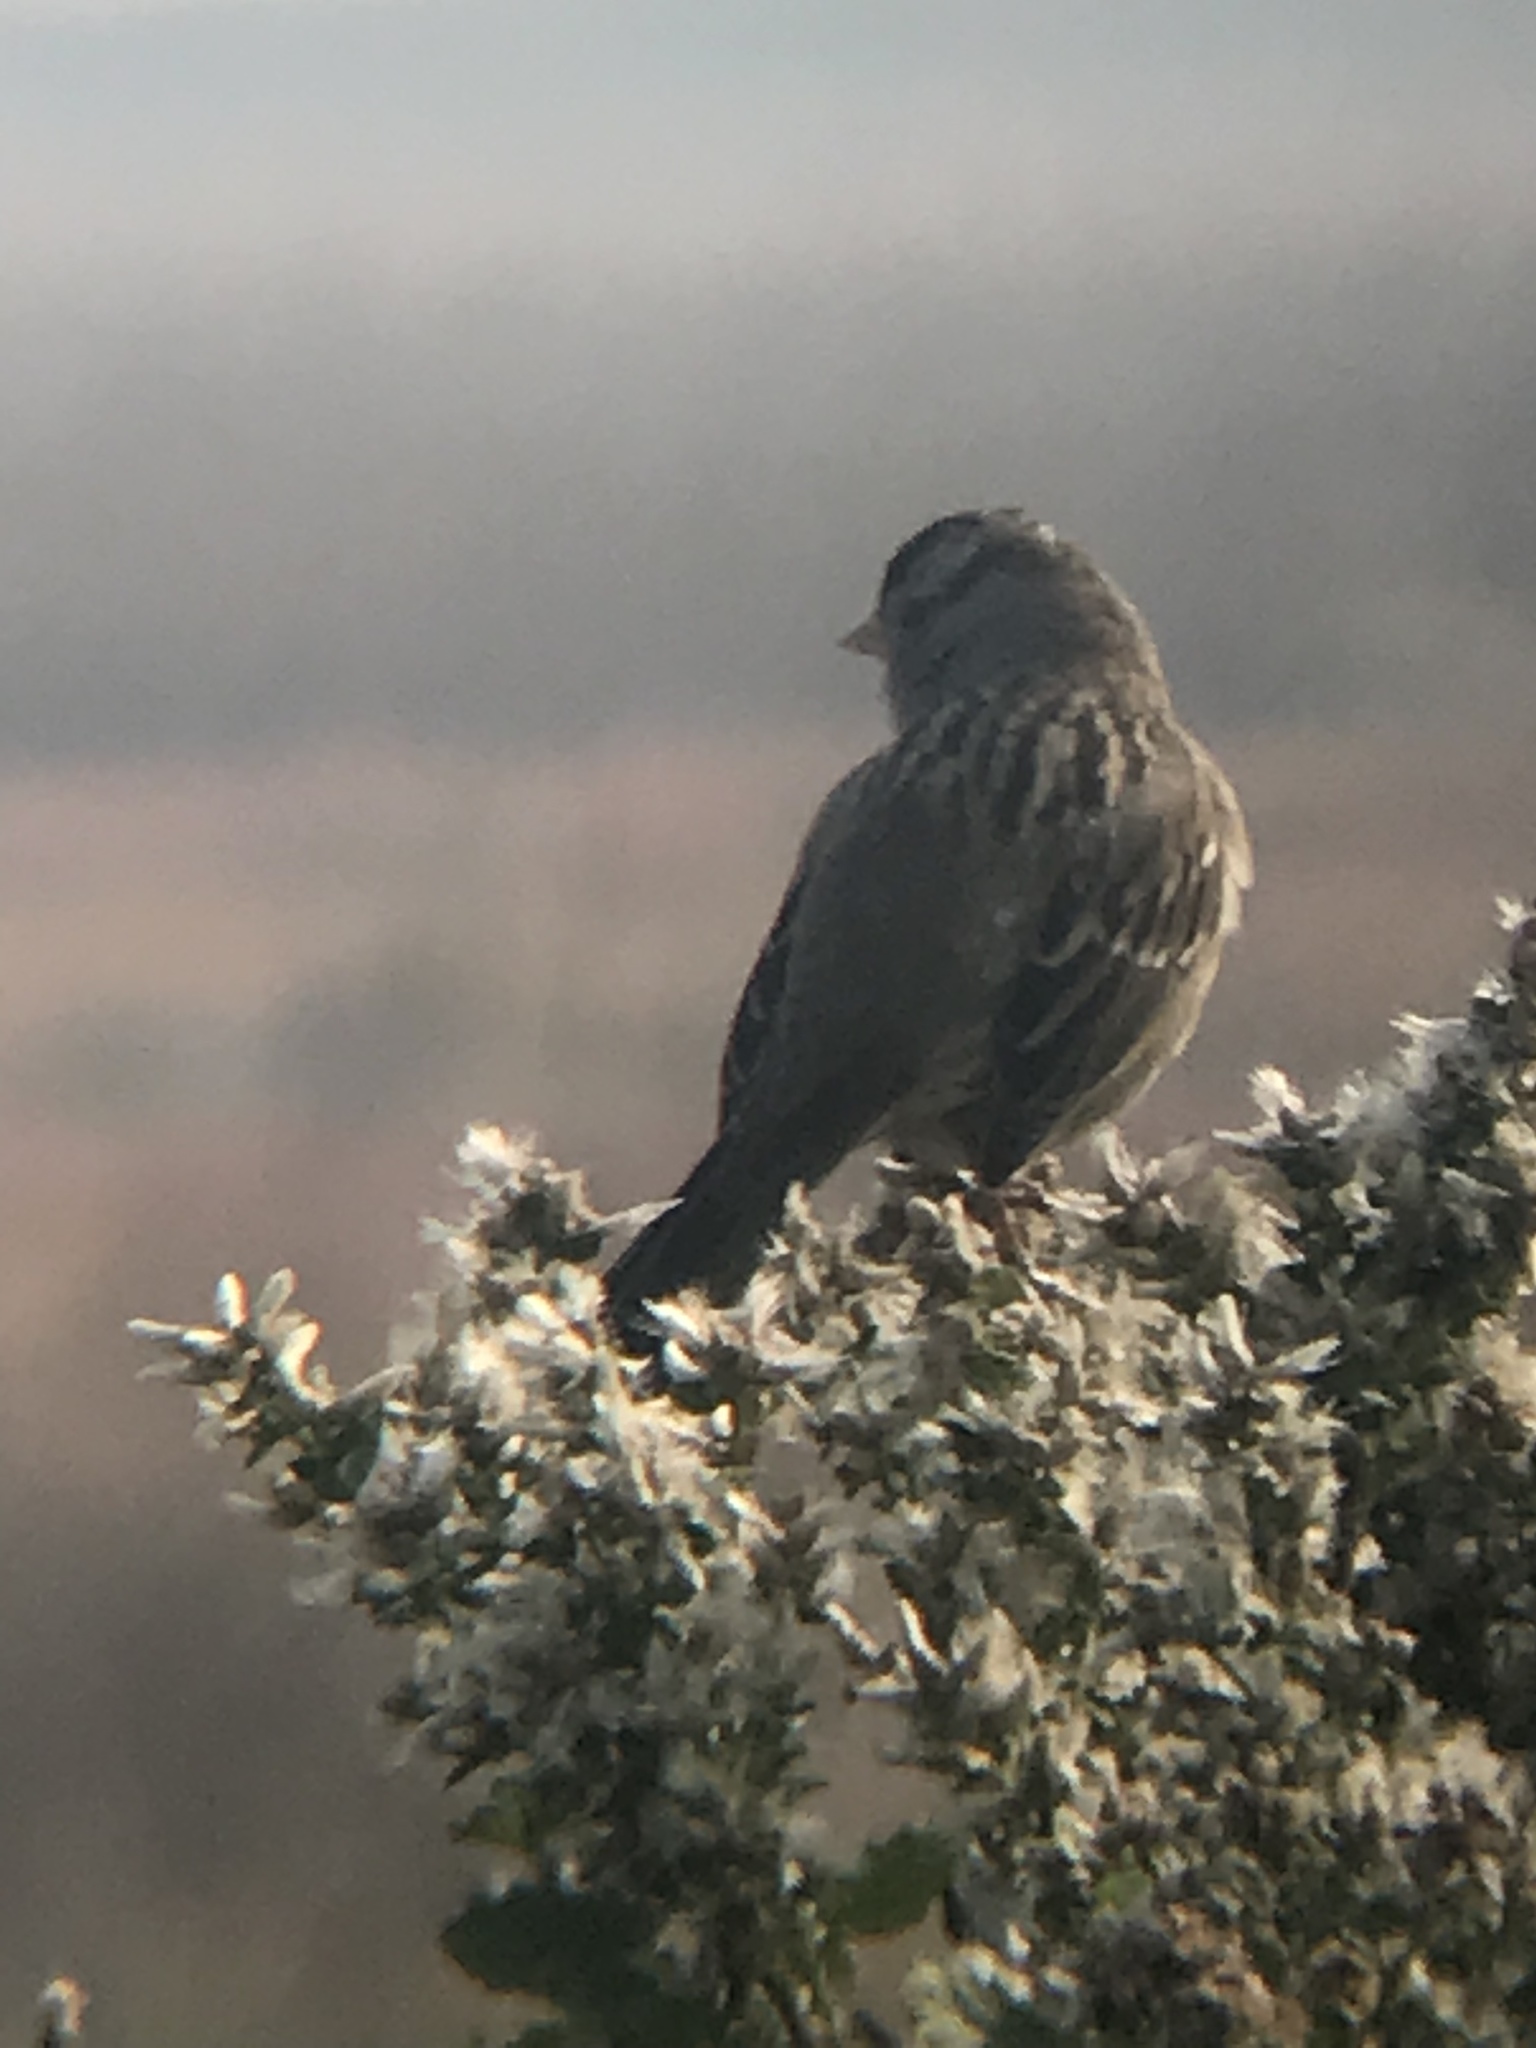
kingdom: Animalia
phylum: Chordata
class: Aves
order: Passeriformes
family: Passerellidae
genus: Zonotrichia
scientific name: Zonotrichia leucophrys
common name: White-crowned sparrow
